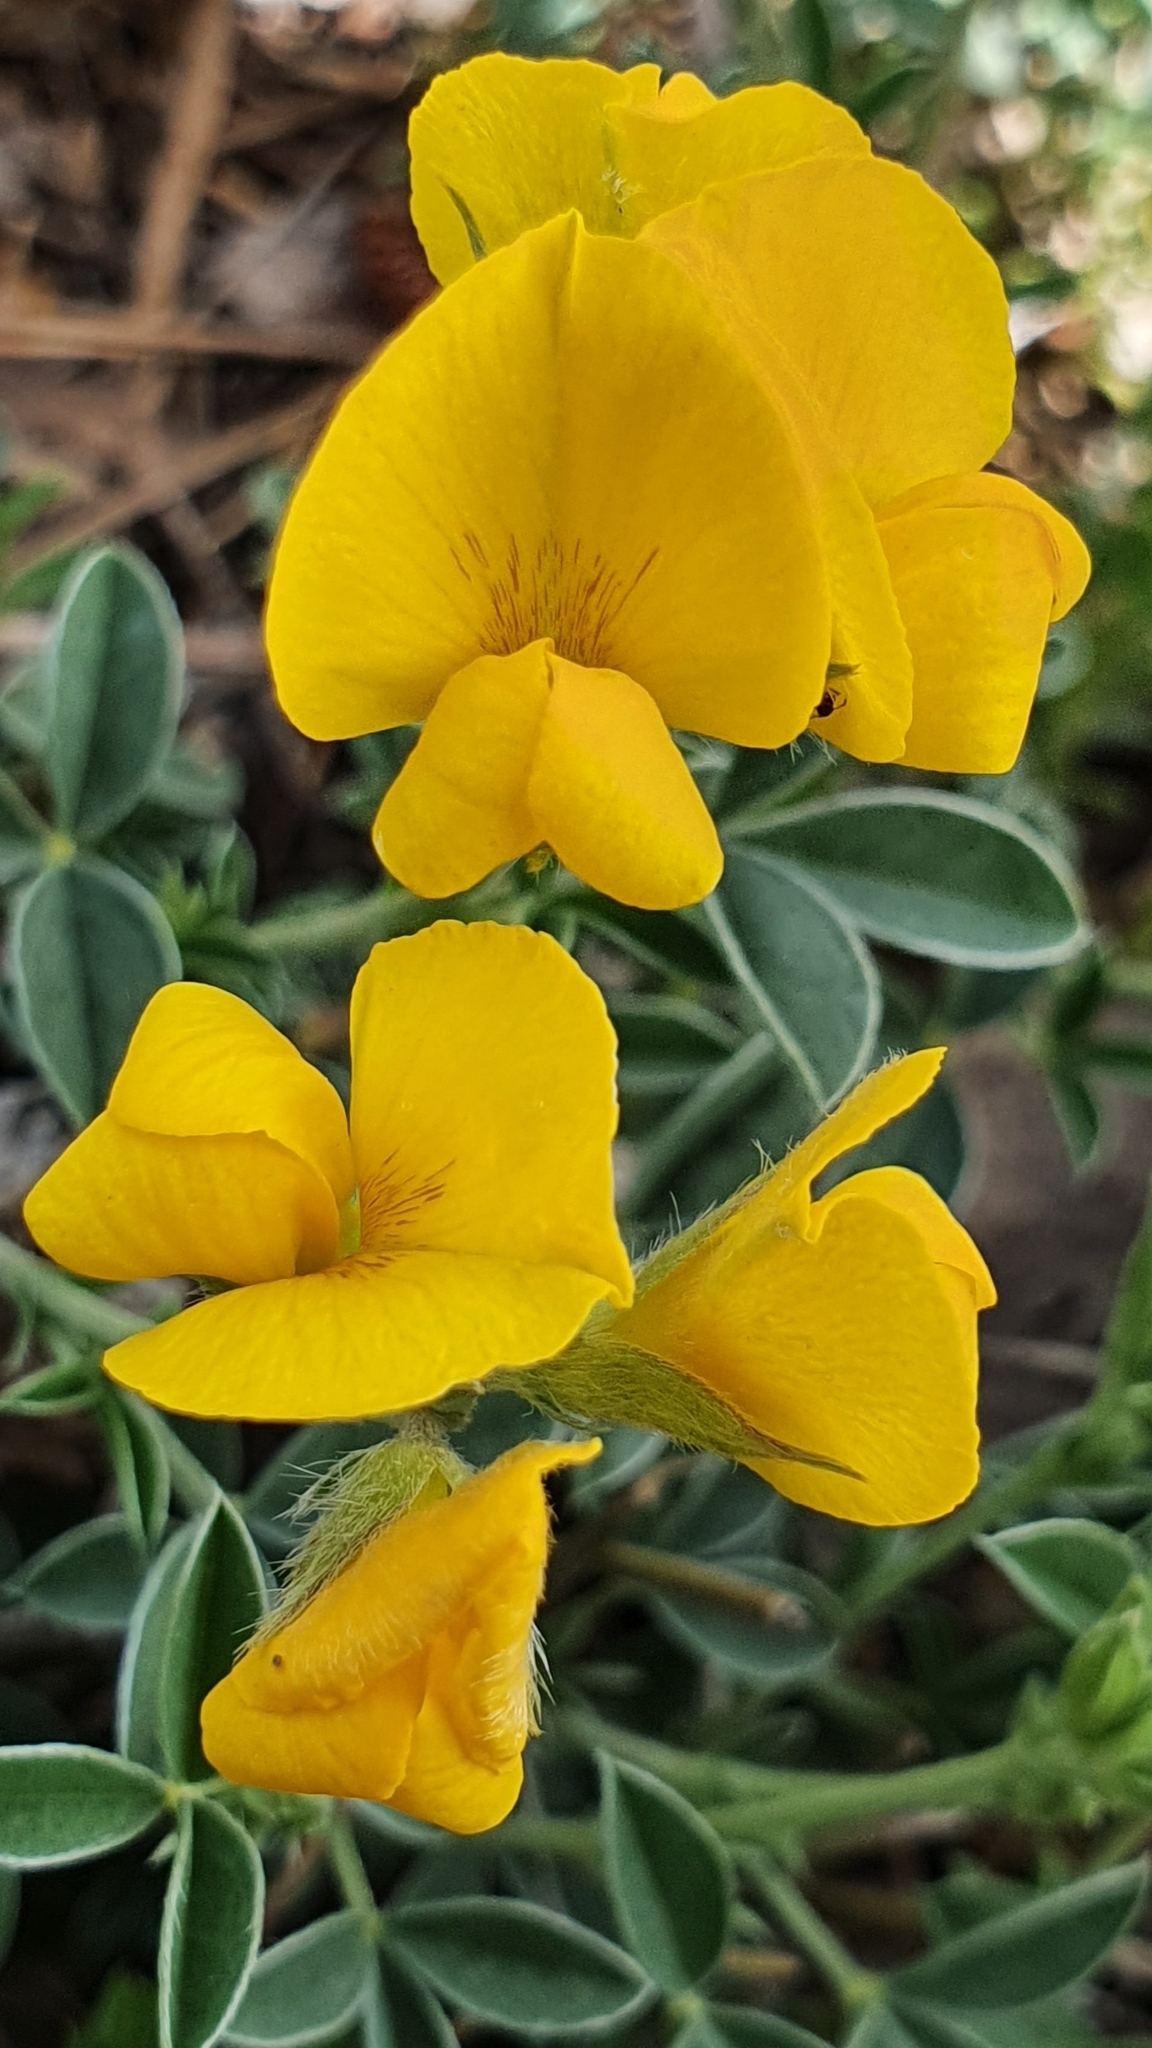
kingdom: Plantae
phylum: Tracheophyta
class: Magnoliopsida
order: Fabales
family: Fabaceae
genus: Argyrolobium
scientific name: Argyrolobium zanonii
